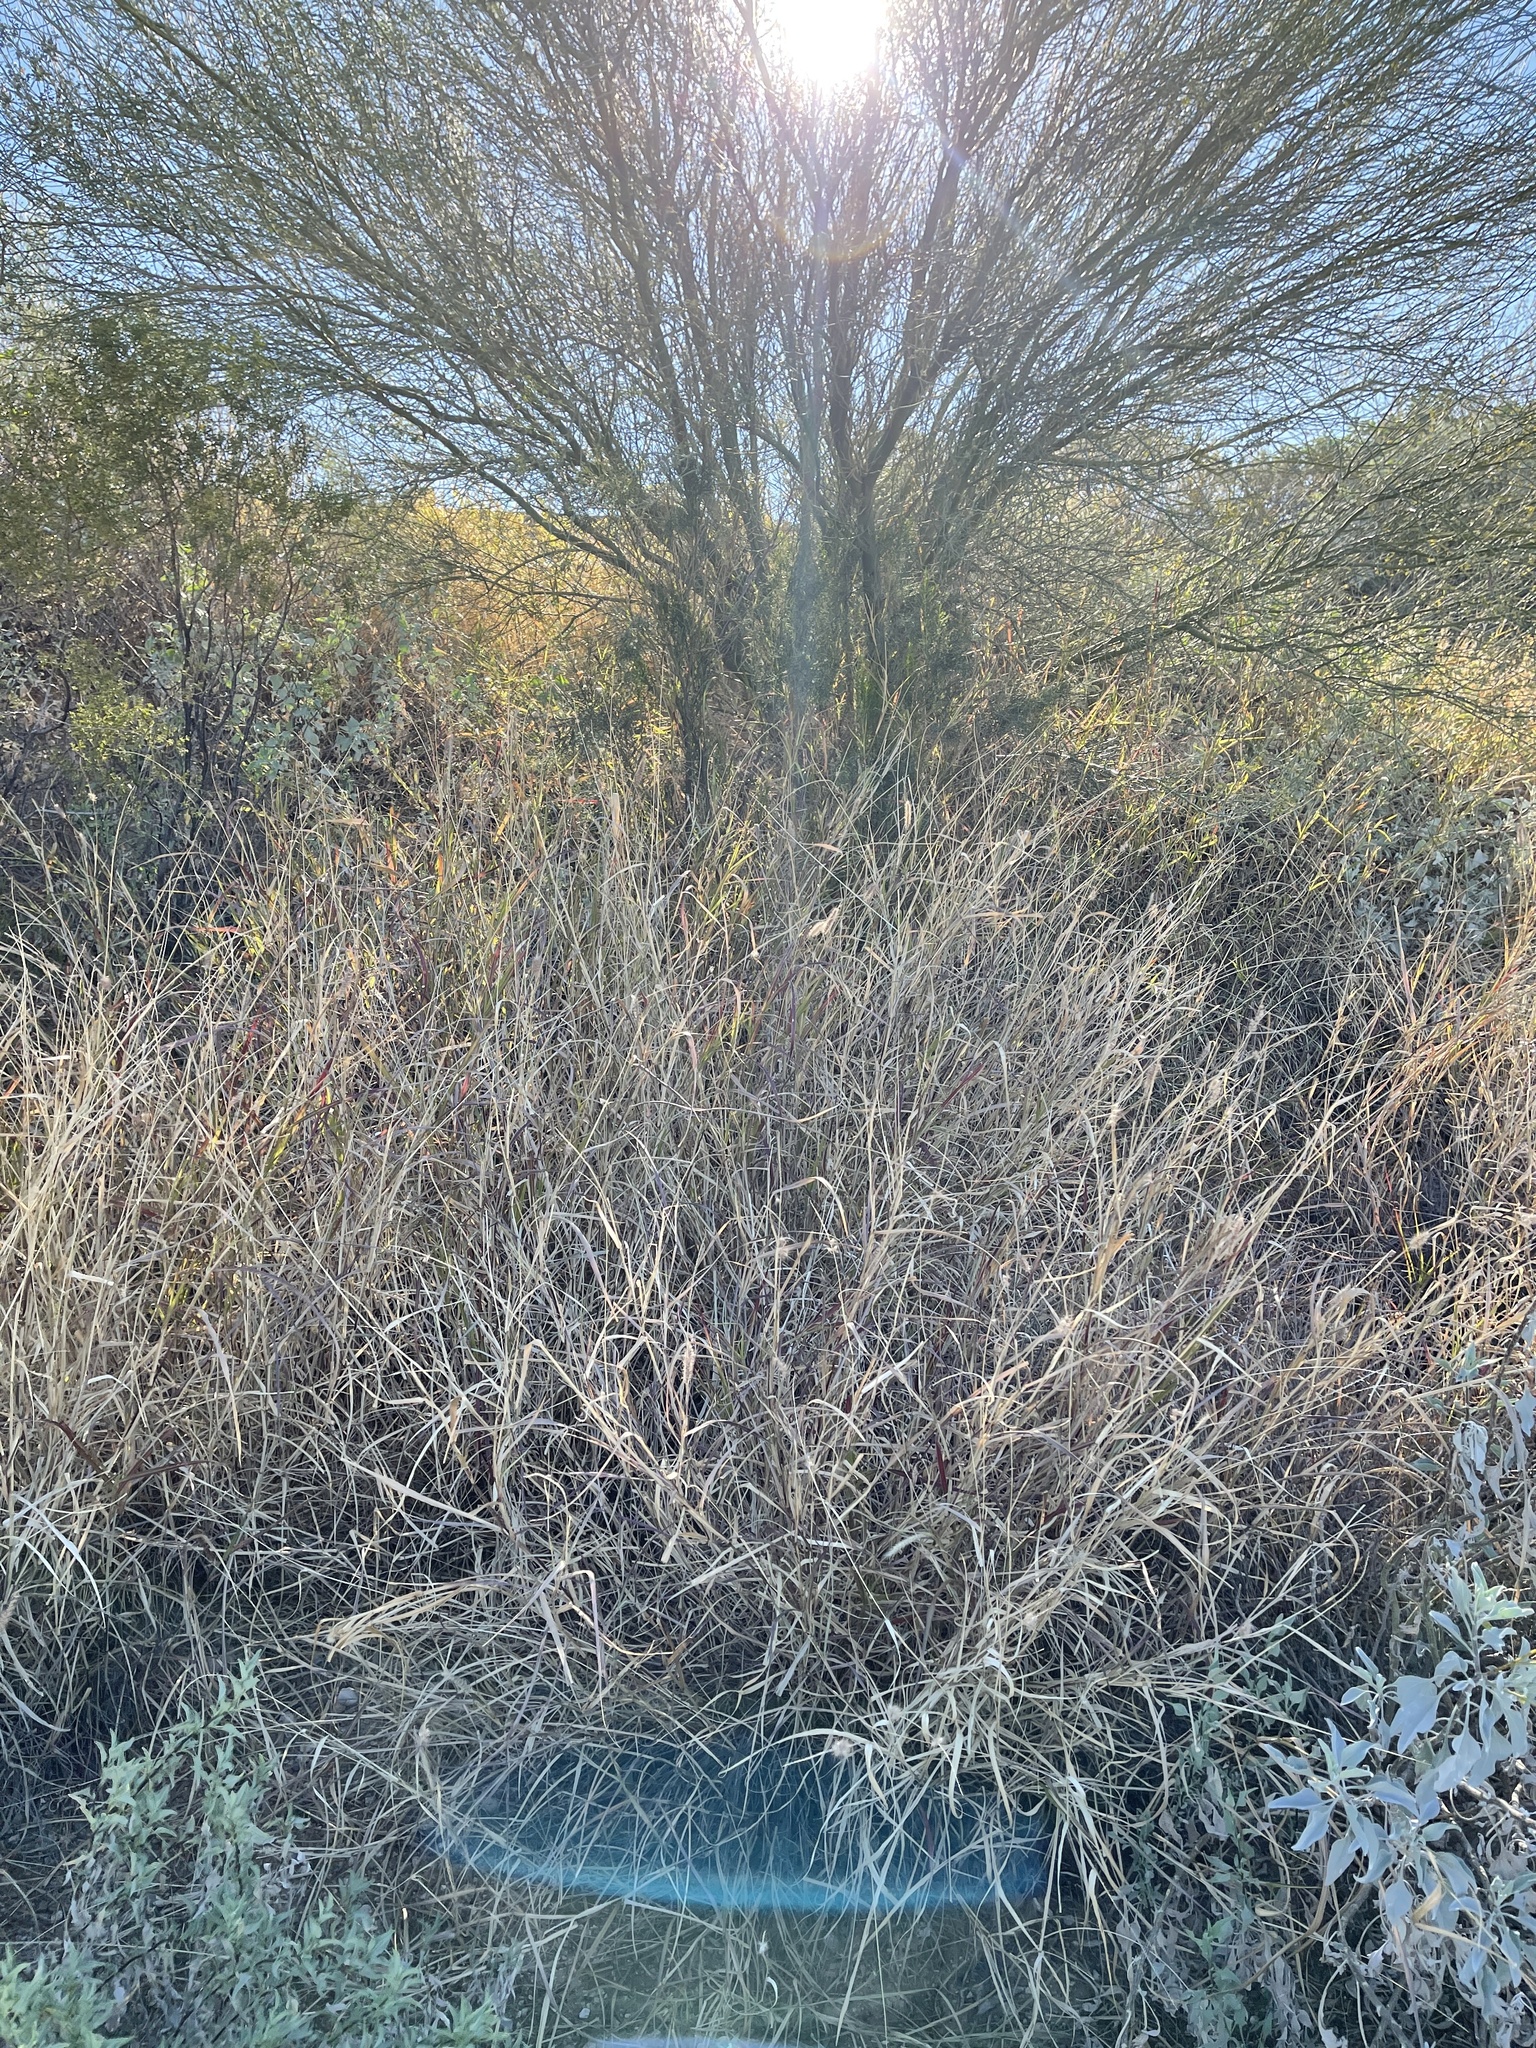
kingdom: Plantae
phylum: Tracheophyta
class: Liliopsida
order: Poales
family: Poaceae
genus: Cenchrus
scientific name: Cenchrus ciliaris
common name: Buffelgrass
